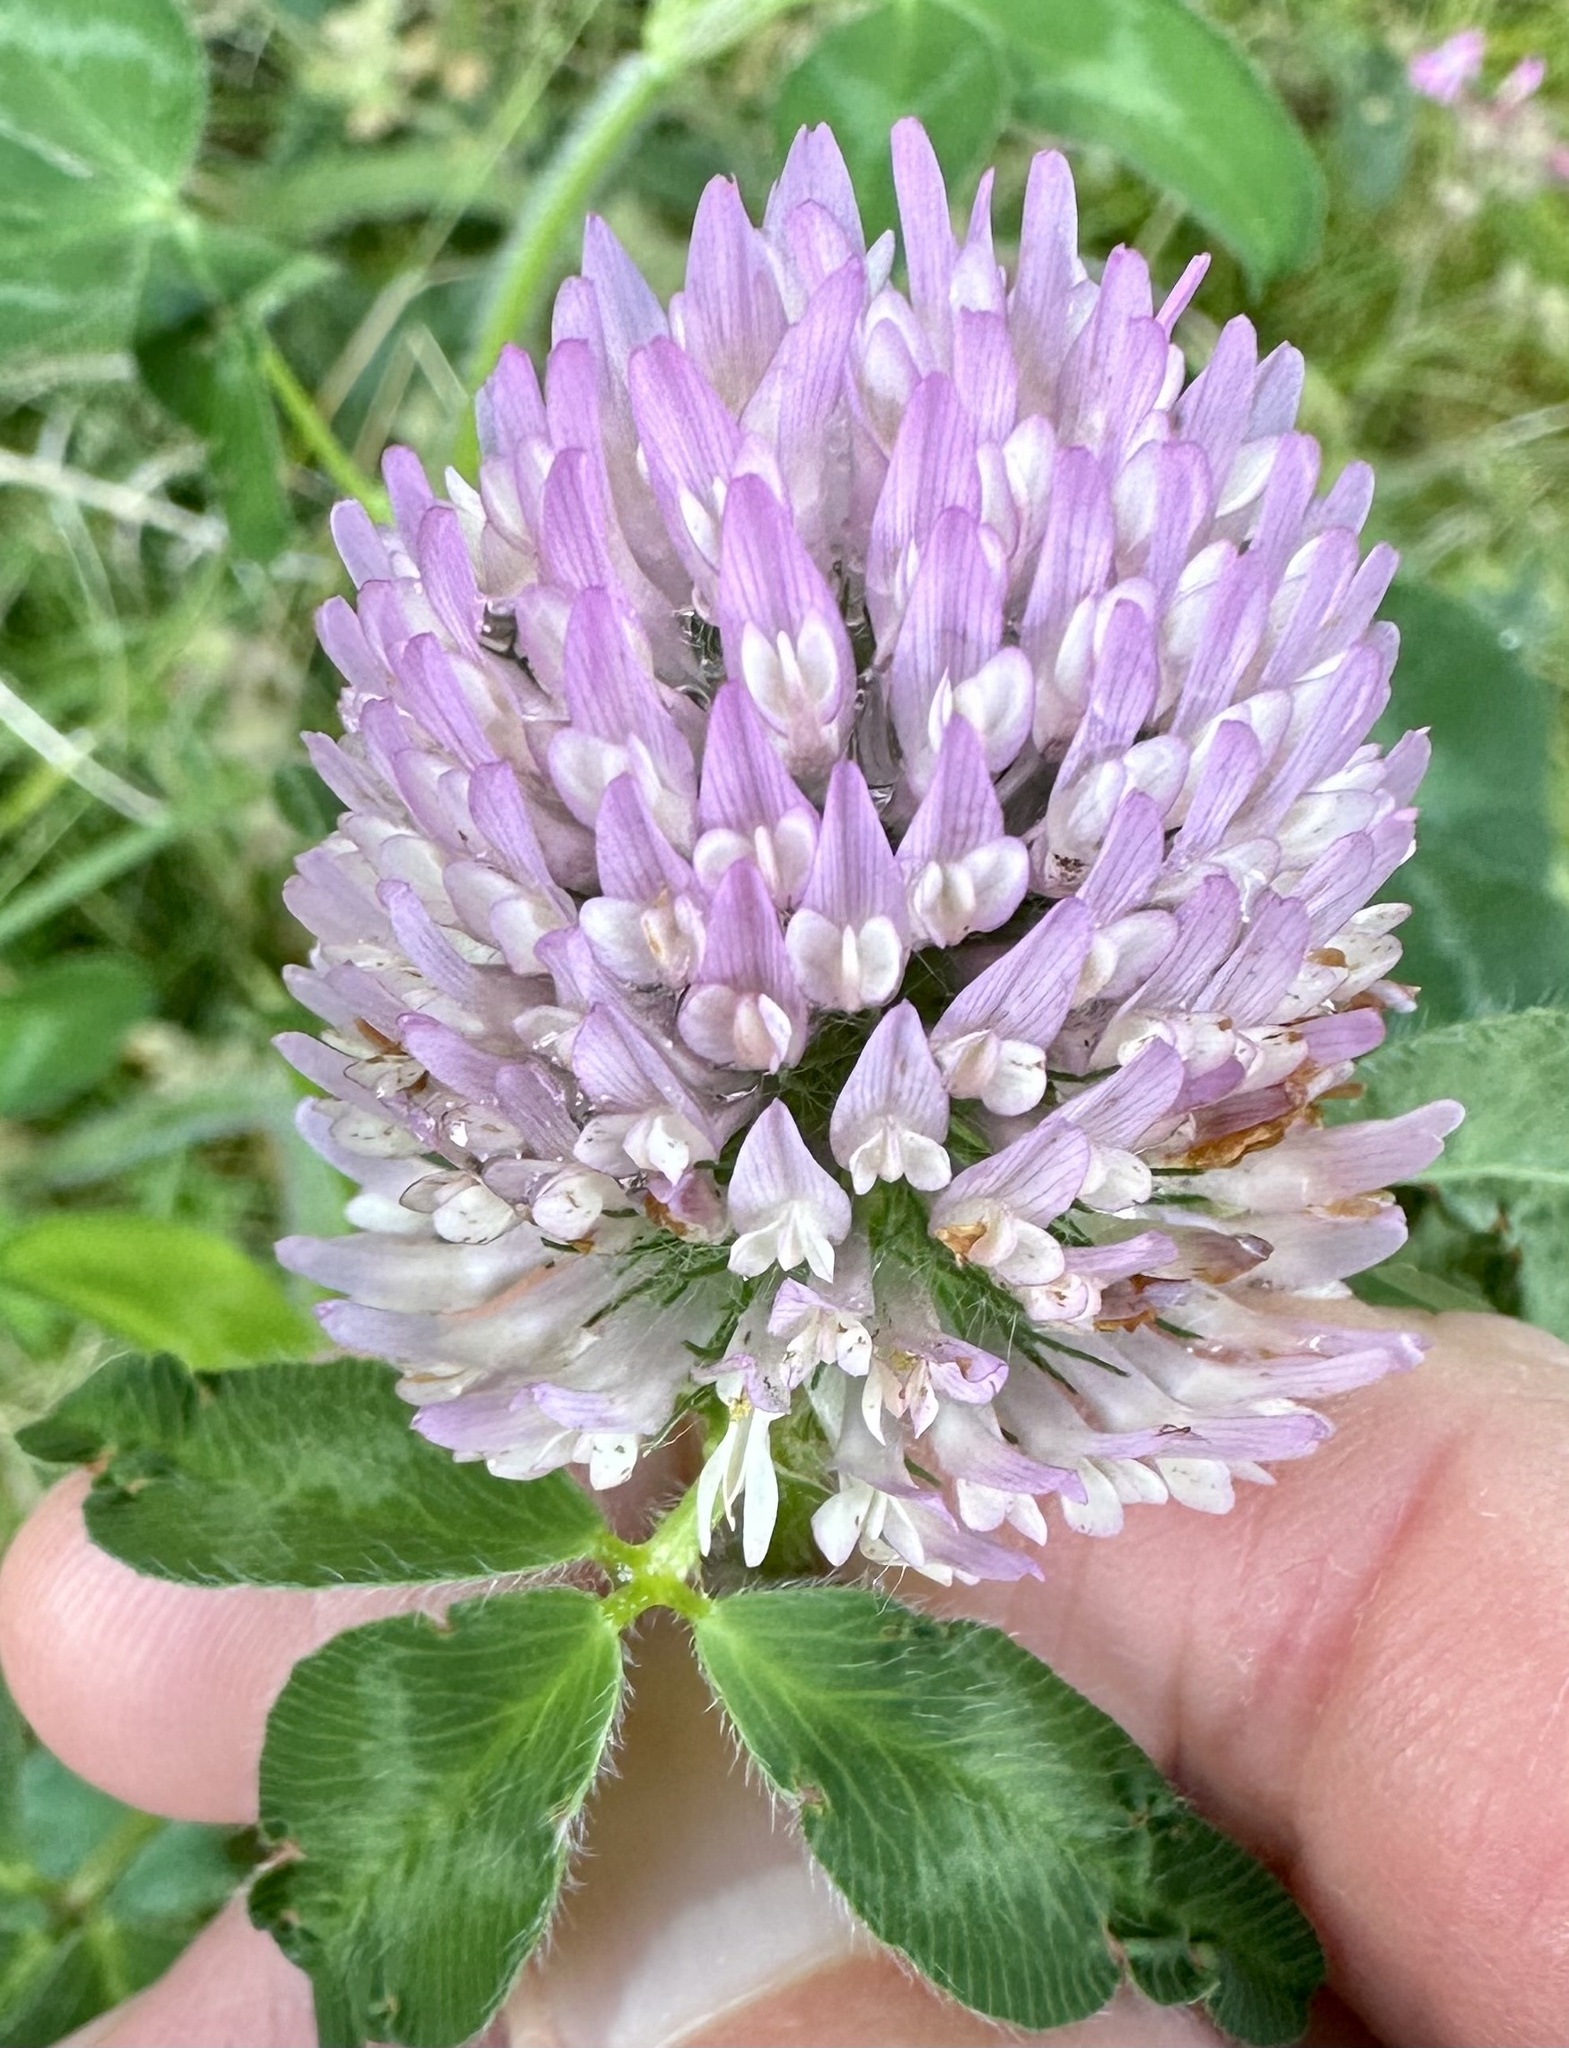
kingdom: Plantae
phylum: Tracheophyta
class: Magnoliopsida
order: Fabales
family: Fabaceae
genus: Trifolium
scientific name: Trifolium pratense
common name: Red clover
